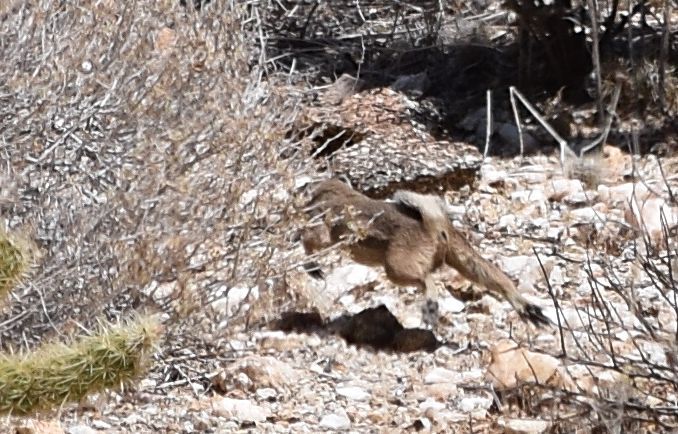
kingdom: Animalia
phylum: Chordata
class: Mammalia
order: Rodentia
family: Sciuridae
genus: Ammospermophilus
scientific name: Ammospermophilus leucurus
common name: White-tailed antelope squirrel
